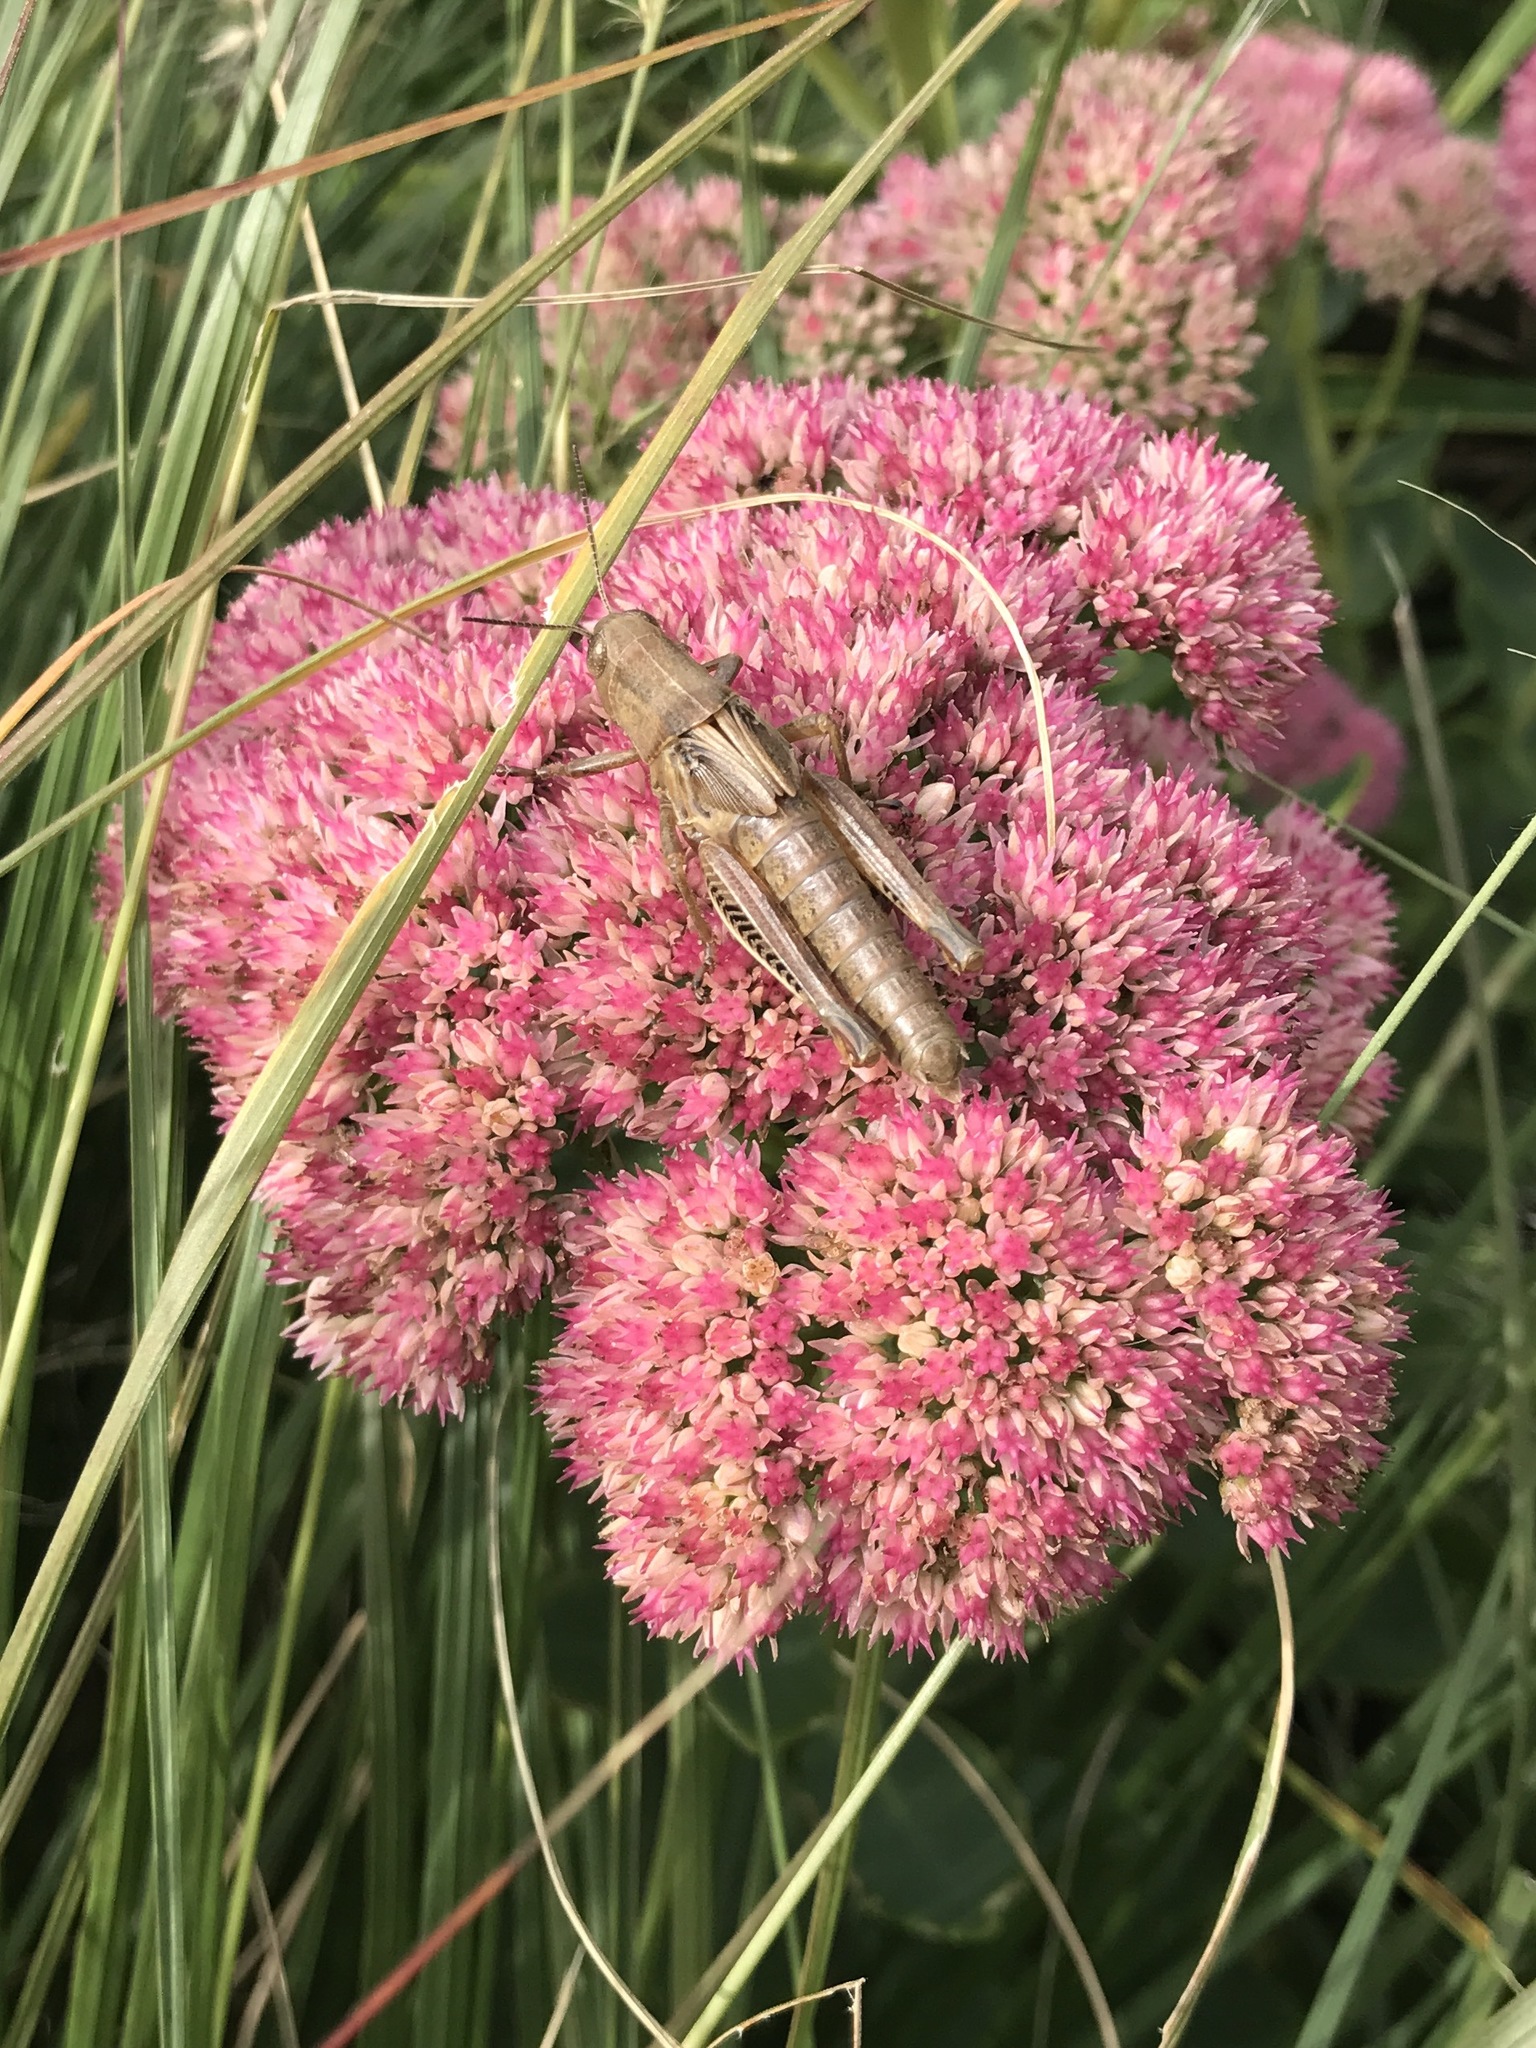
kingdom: Animalia
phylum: Arthropoda
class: Insecta
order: Orthoptera
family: Acrididae
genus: Melanoplus
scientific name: Melanoplus differentialis
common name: Differential grasshopper
